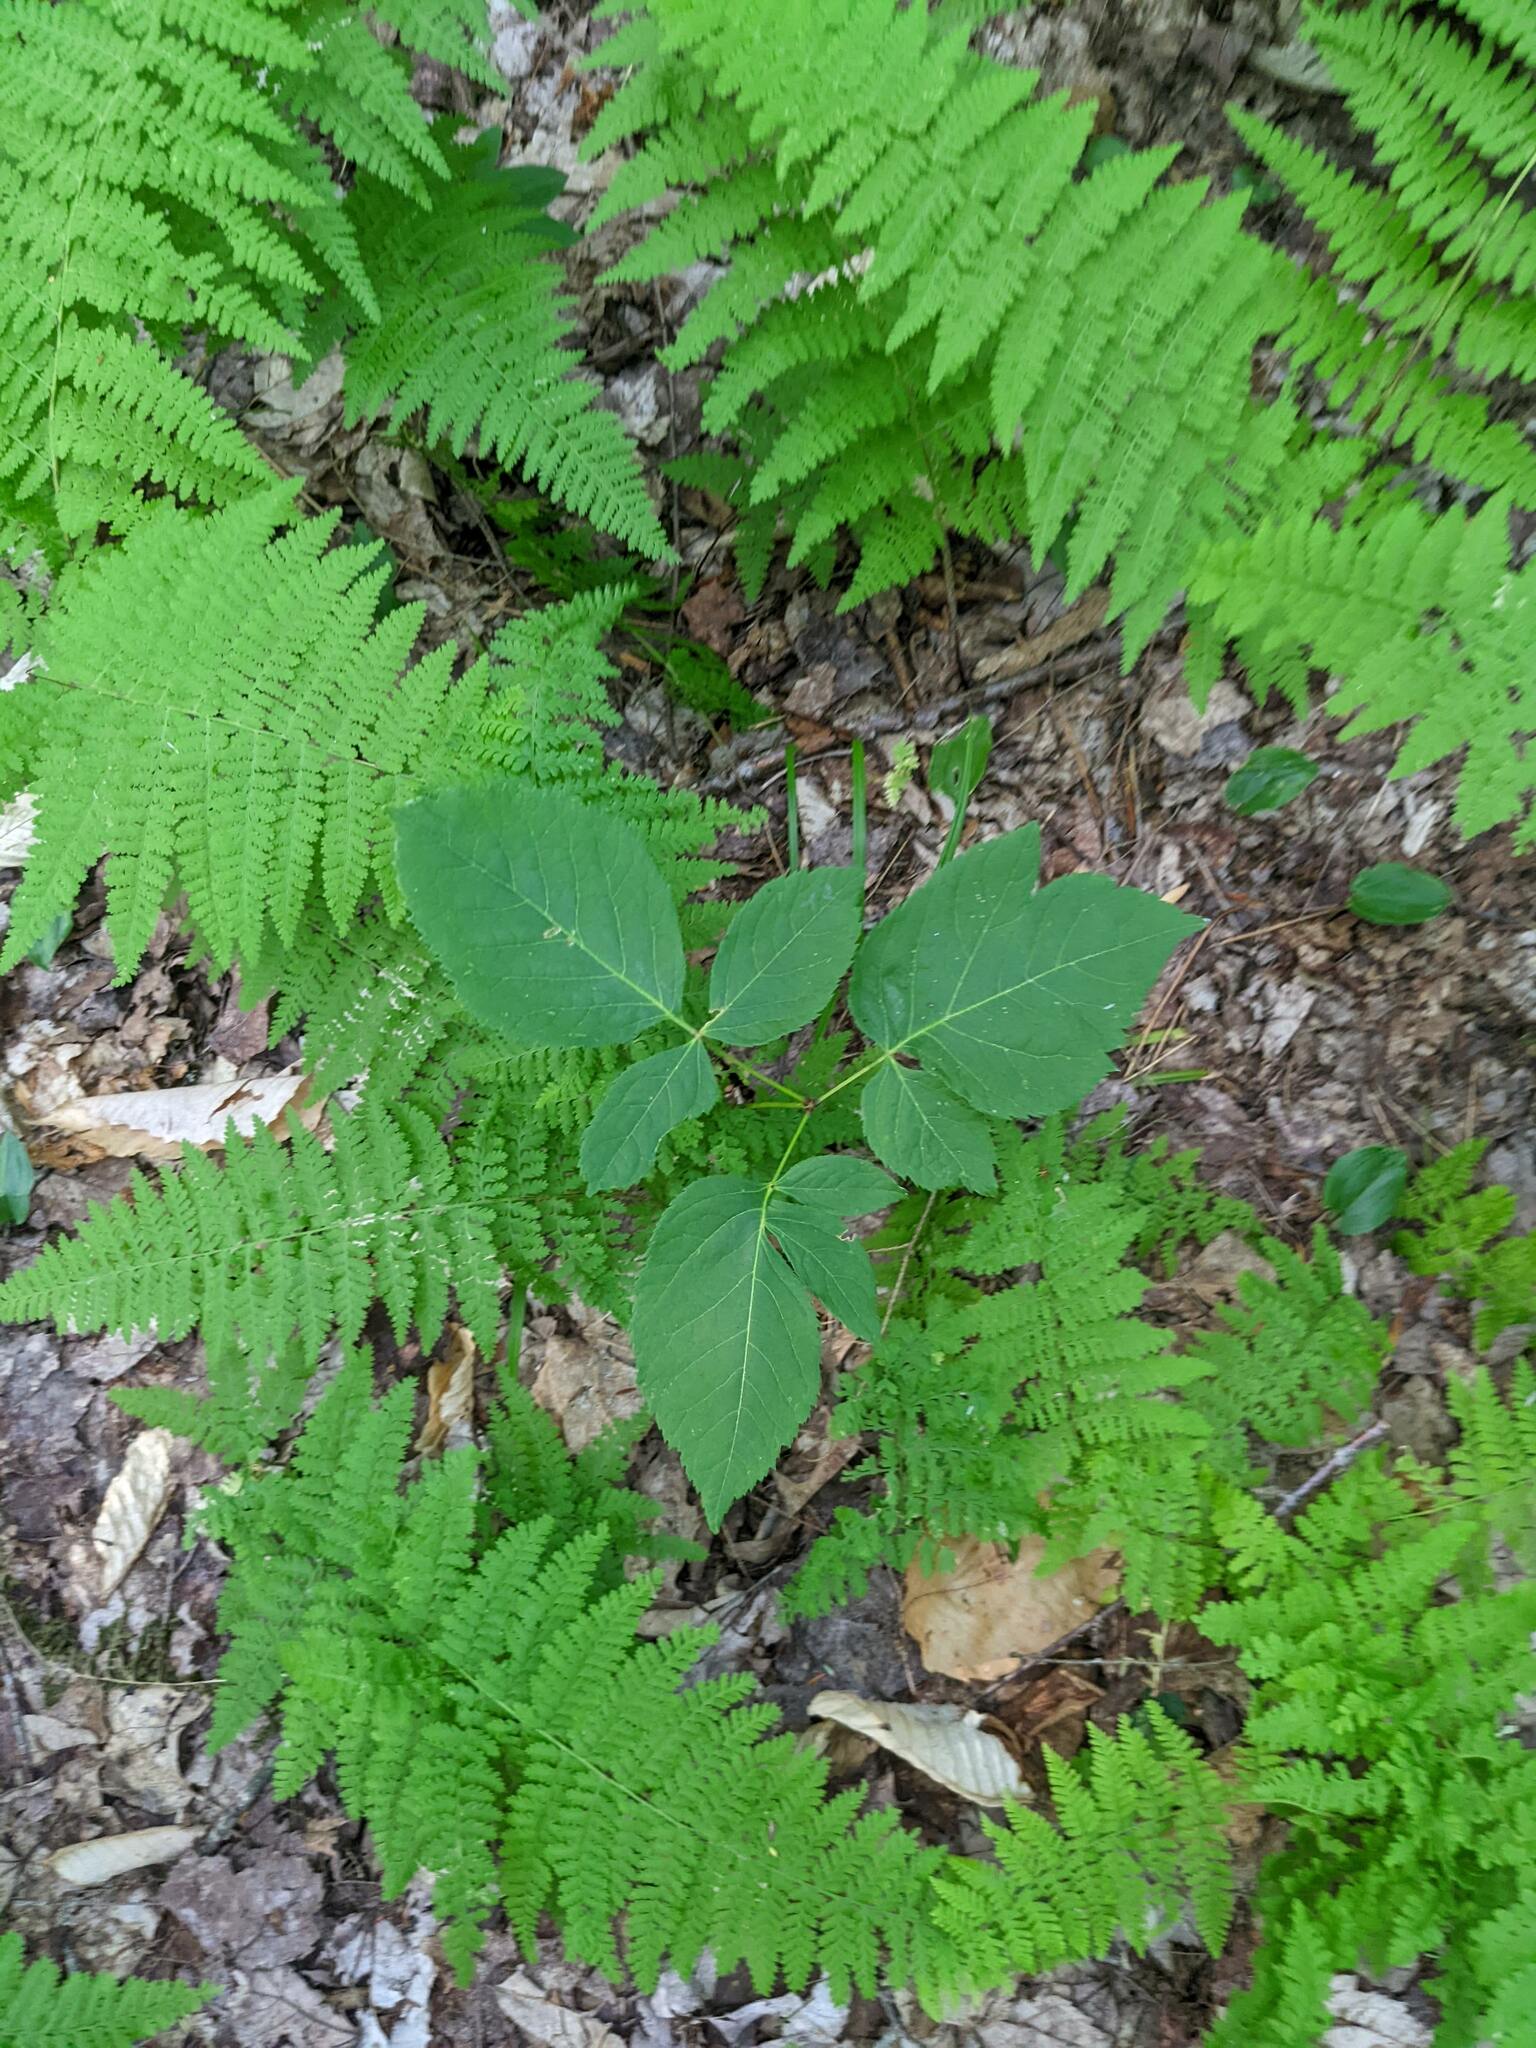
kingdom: Plantae
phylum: Tracheophyta
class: Magnoliopsida
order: Apiales
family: Araliaceae
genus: Aralia
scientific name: Aralia nudicaulis
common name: Wild sarsaparilla
